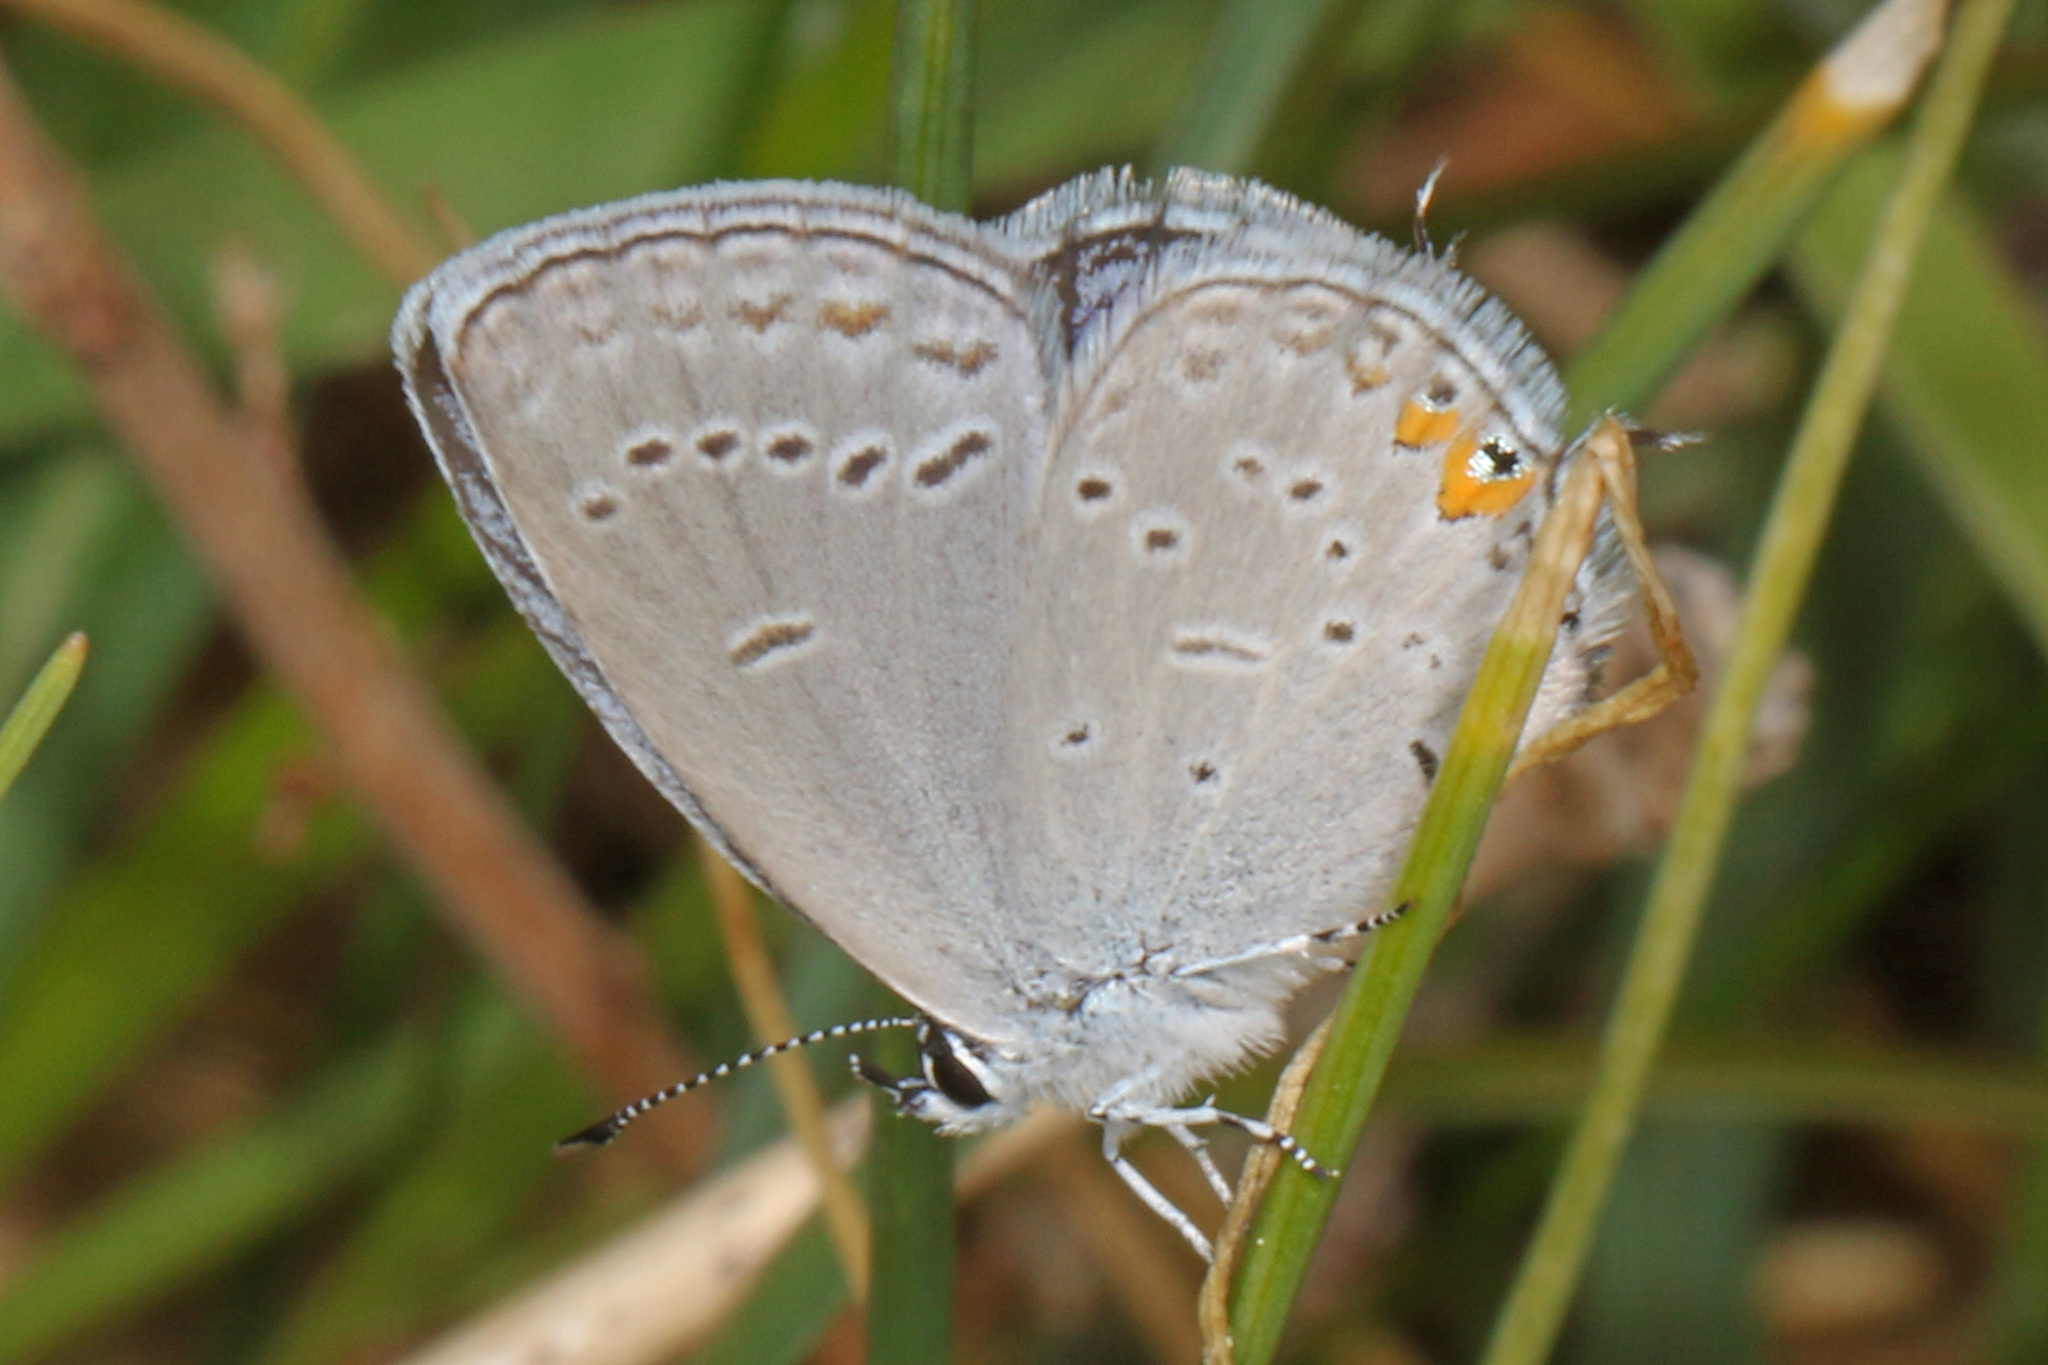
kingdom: Animalia
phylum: Arthropoda
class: Insecta
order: Lepidoptera
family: Lycaenidae
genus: Elkalyce
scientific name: Elkalyce comyntas
